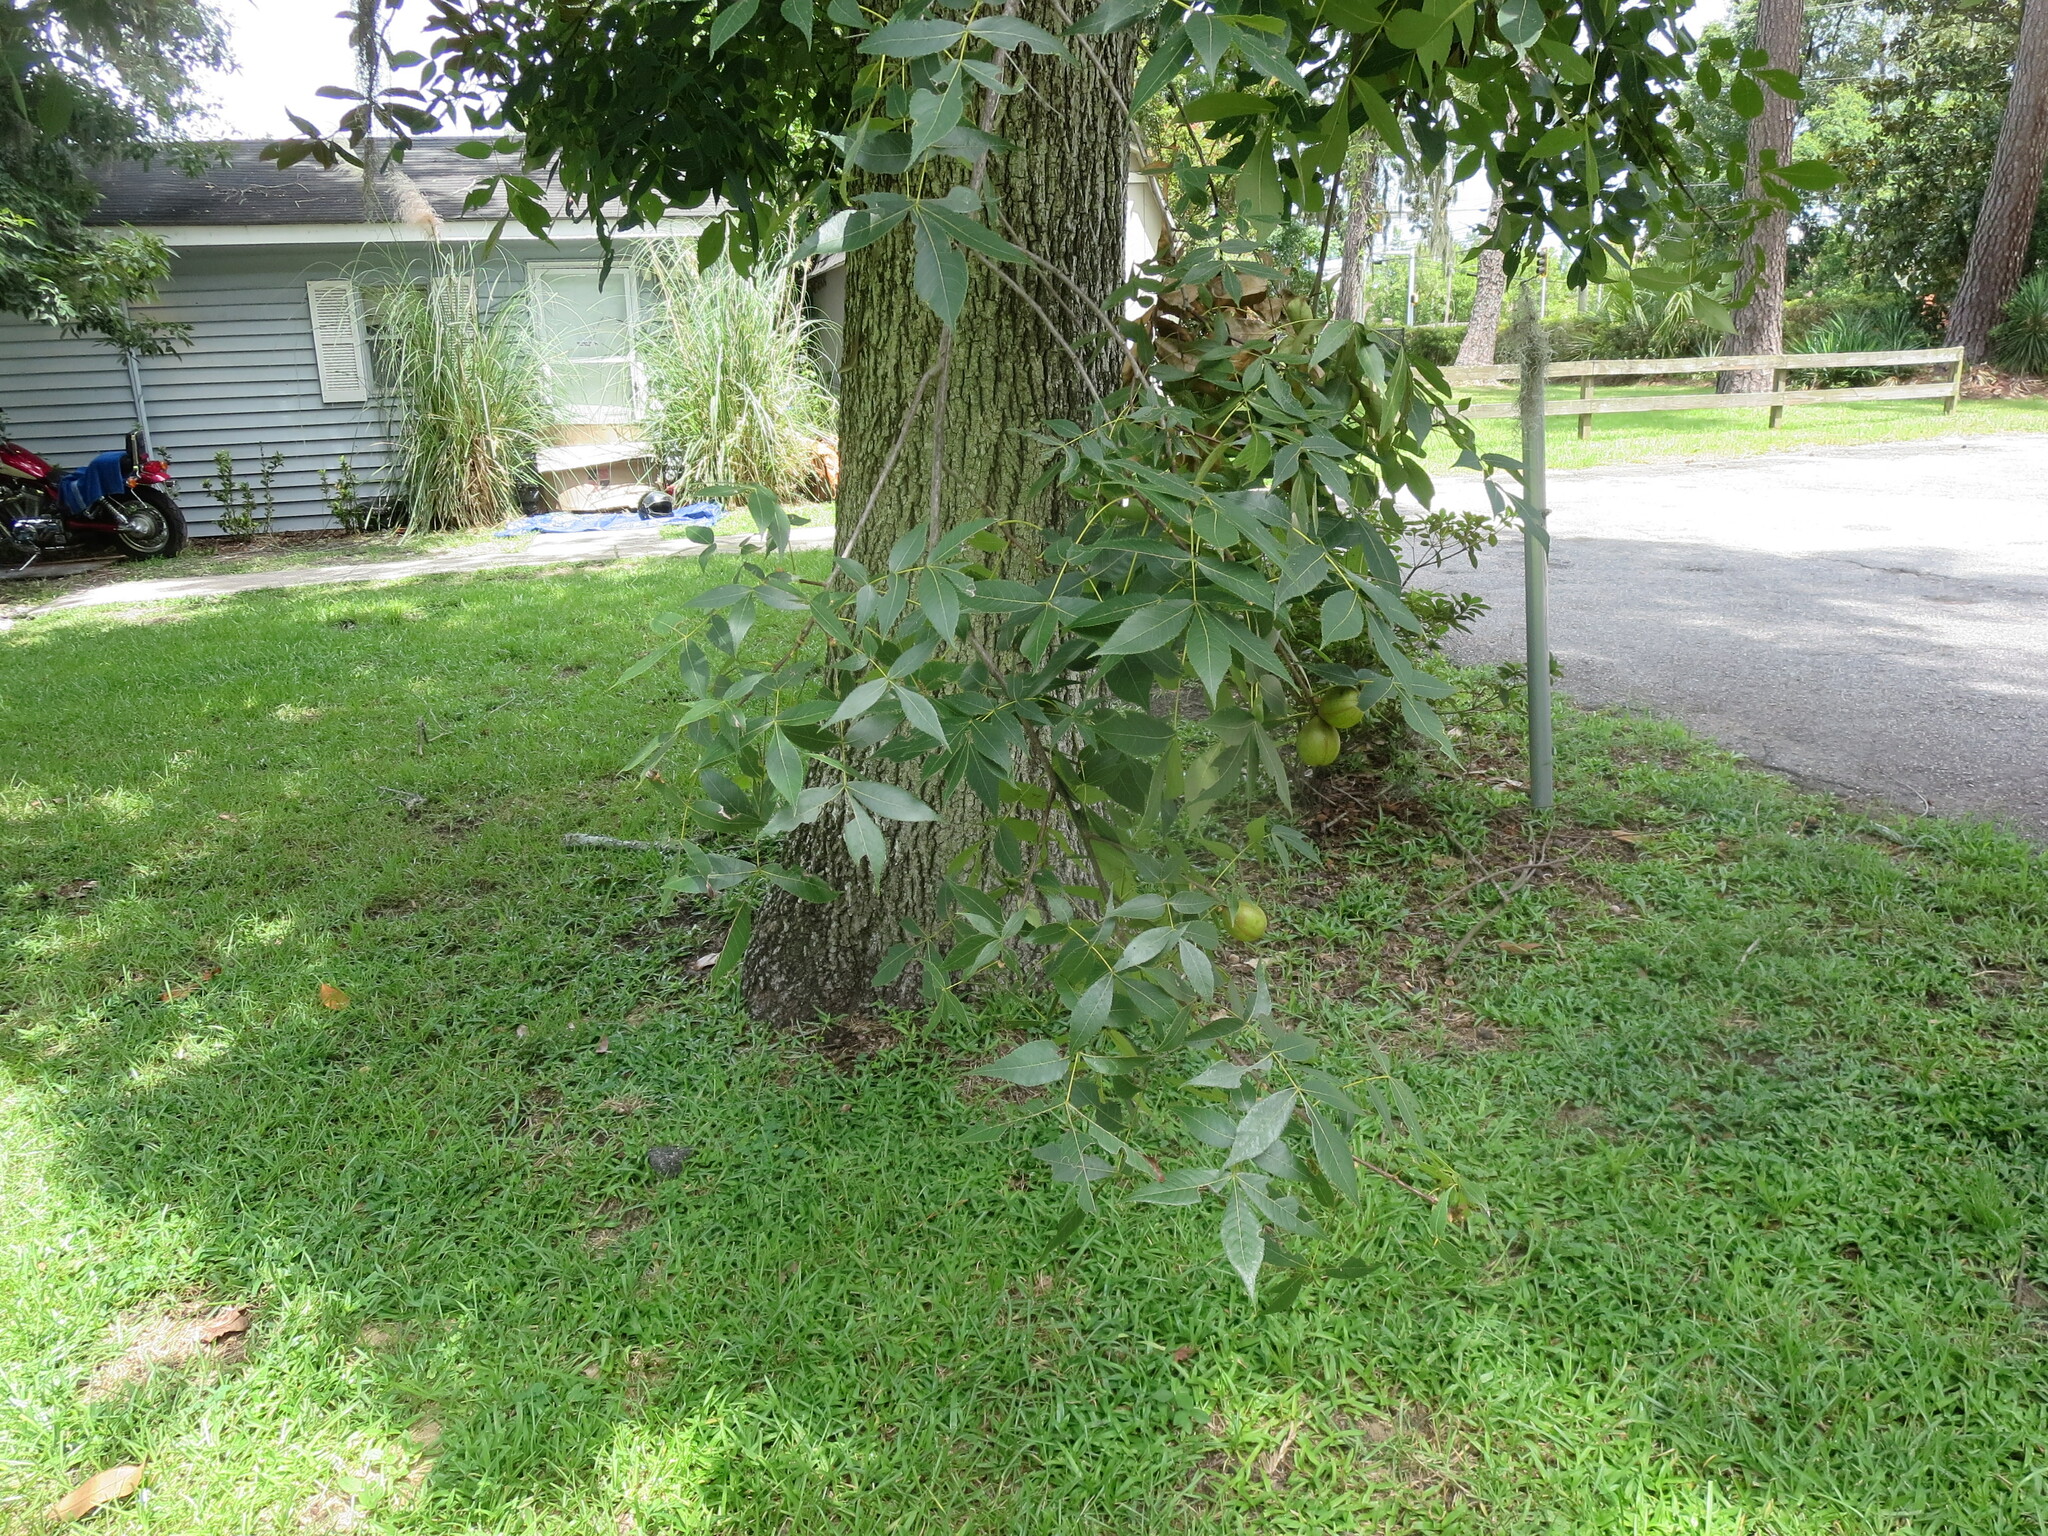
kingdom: Plantae
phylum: Tracheophyta
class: Magnoliopsida
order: Fagales
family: Juglandaceae
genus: Carya
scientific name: Carya glabra
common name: Pignut hickory
